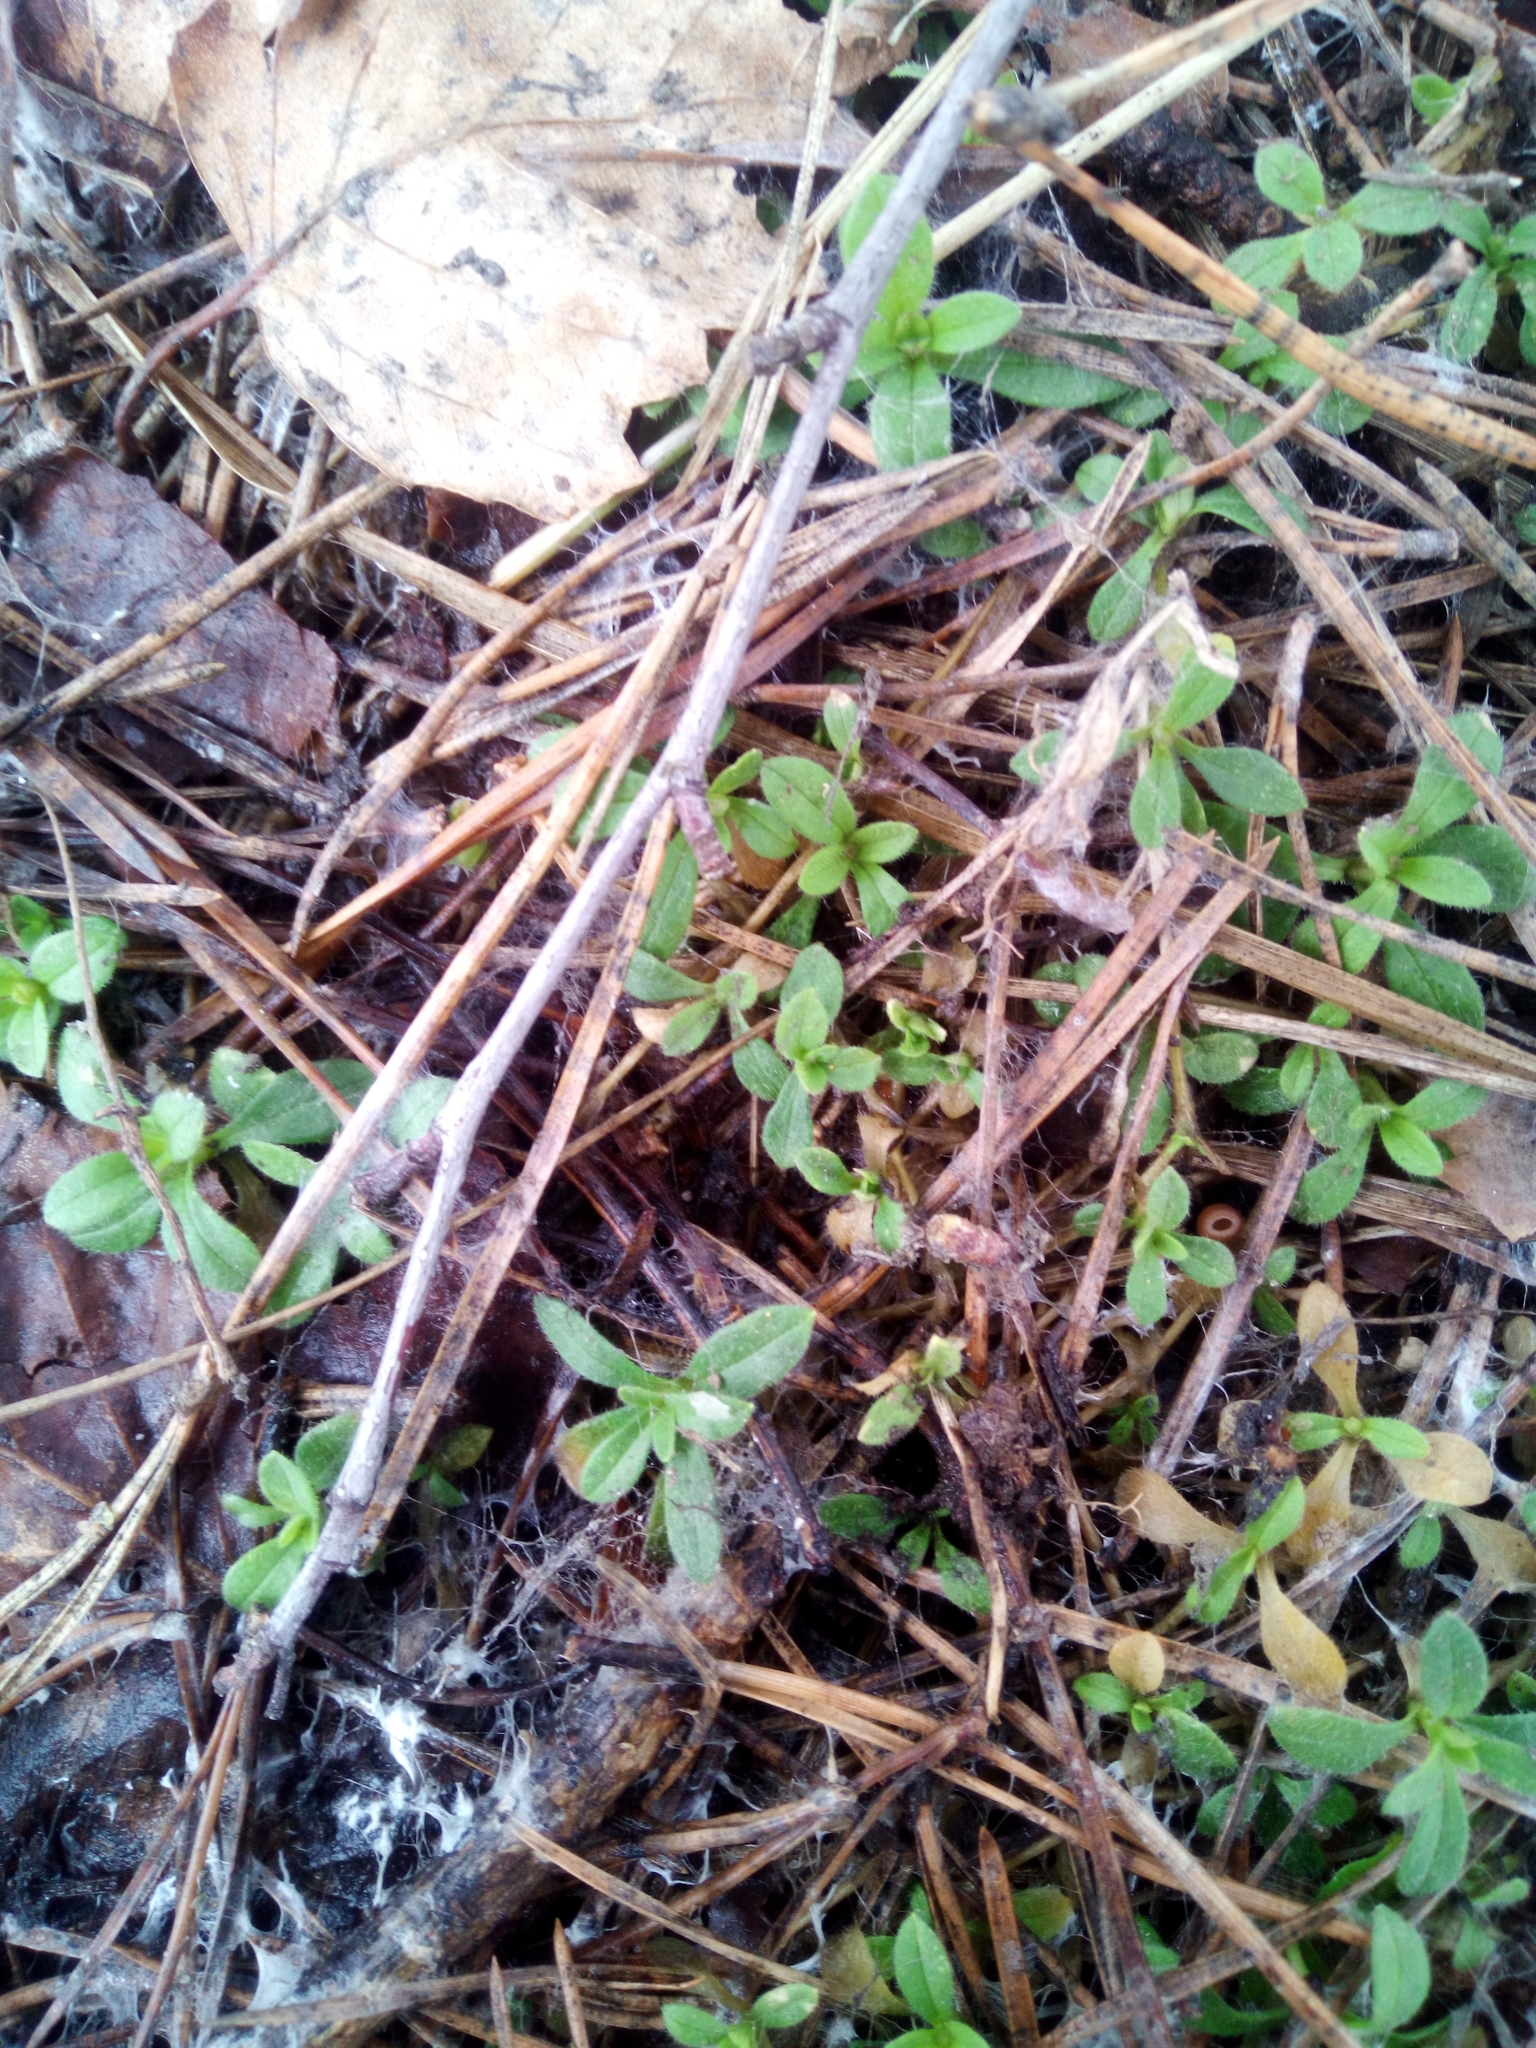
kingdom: Plantae
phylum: Tracheophyta
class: Magnoliopsida
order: Caryophyllales
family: Caryophyllaceae
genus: Cerastium
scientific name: Cerastium holosteoides
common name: Big chickweed
